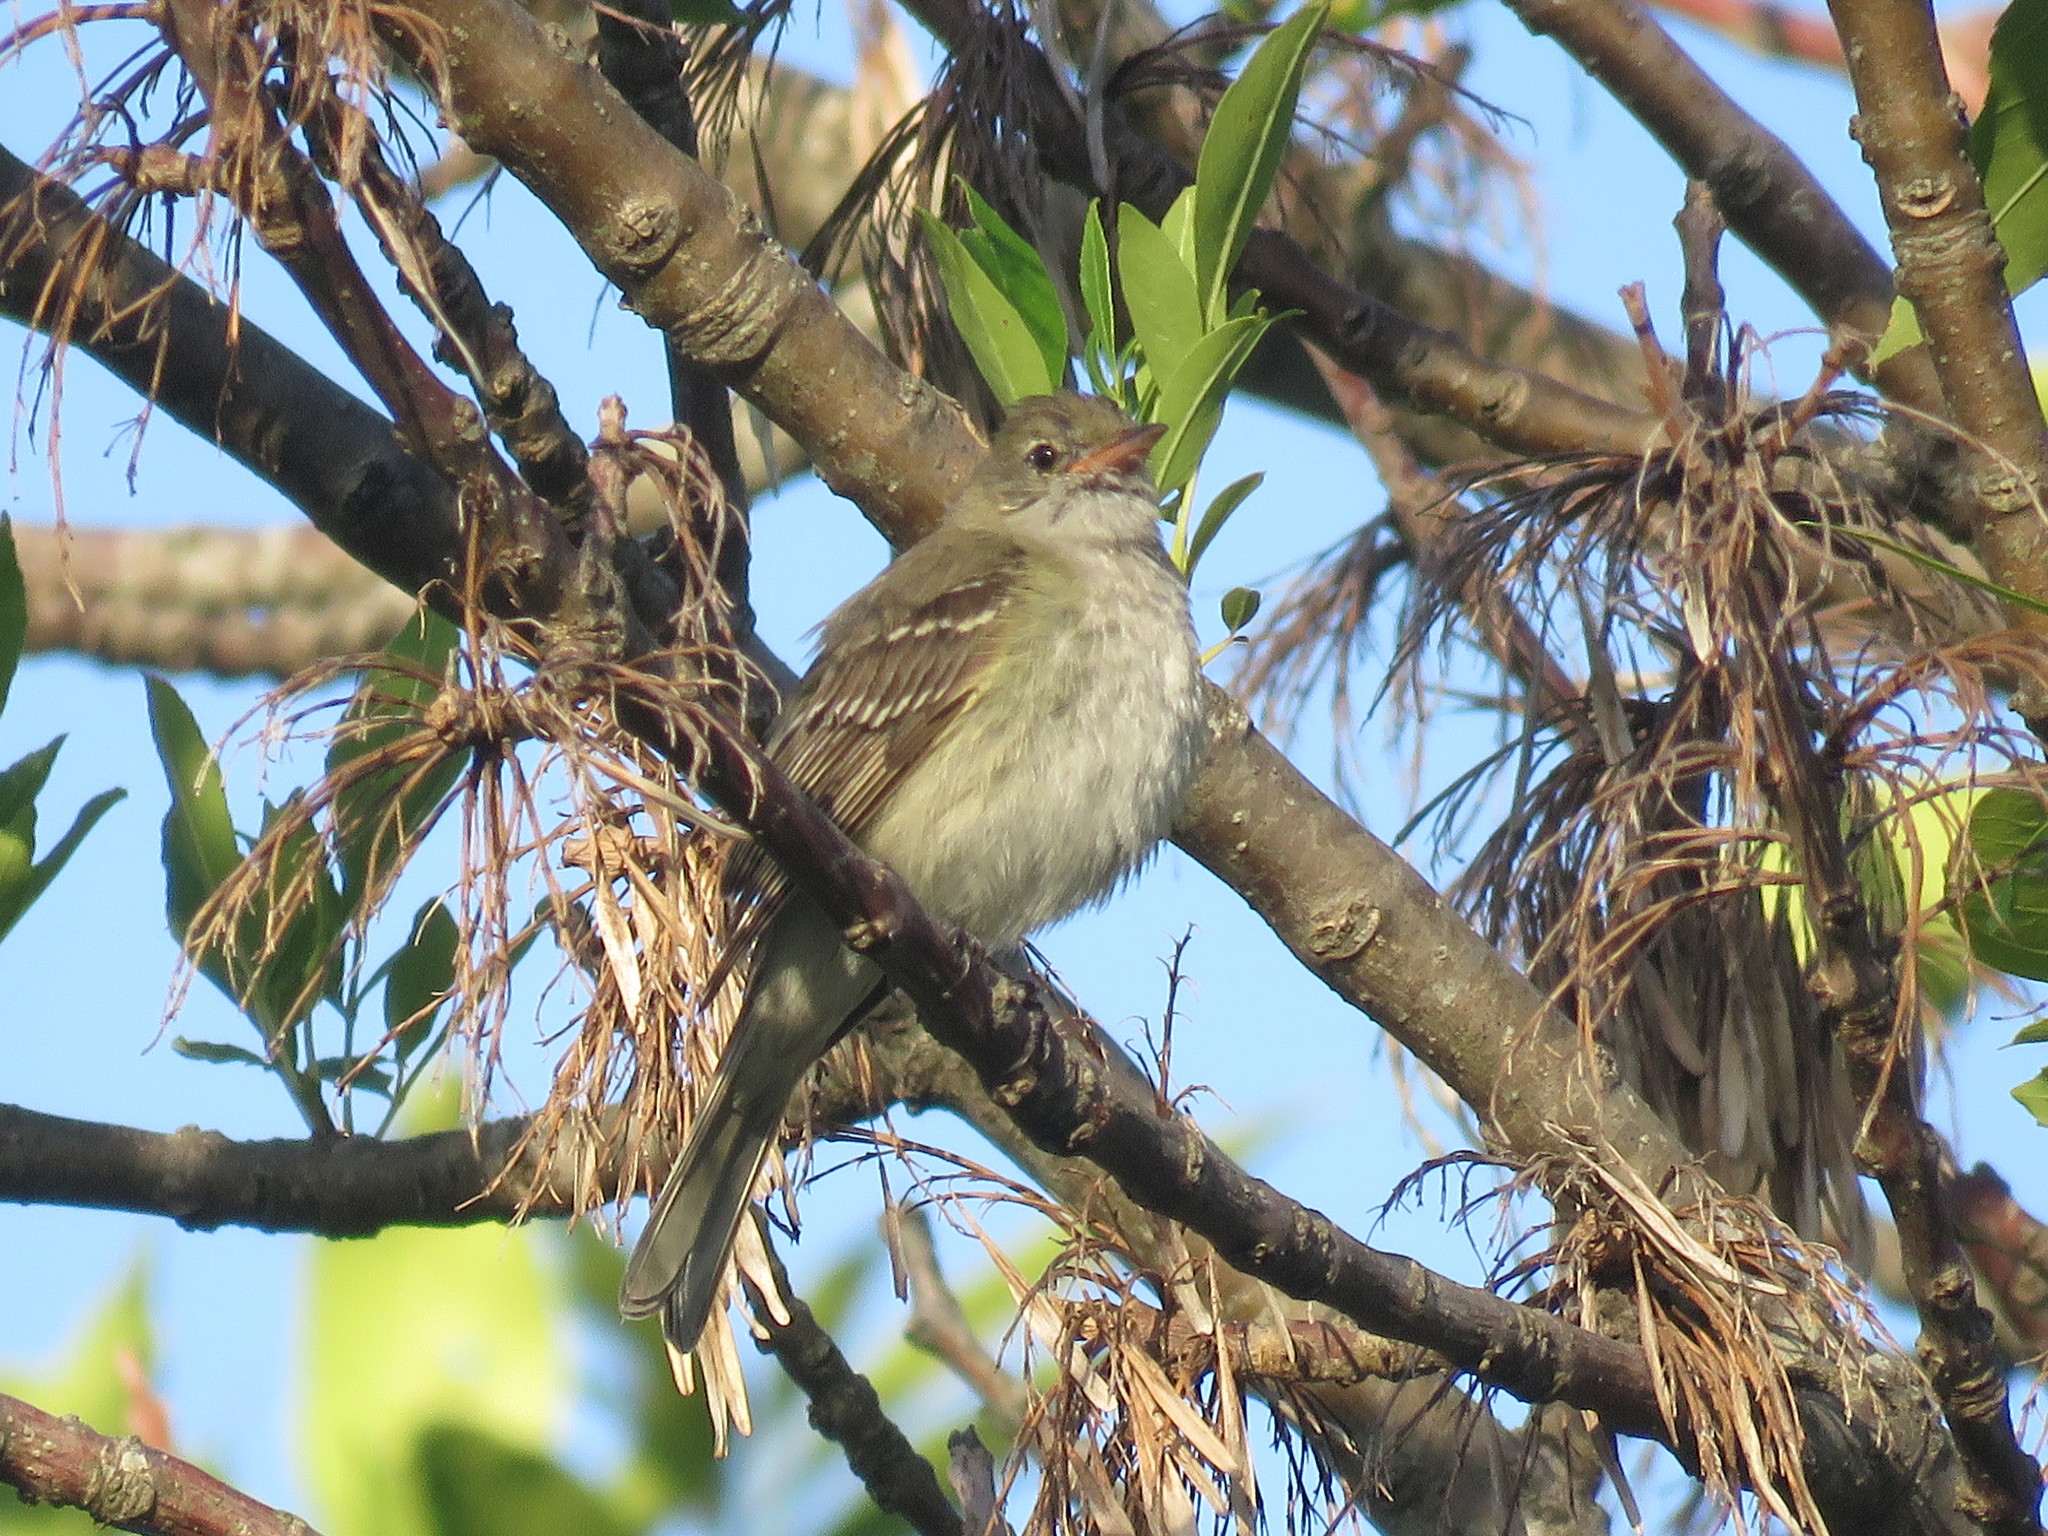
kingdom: Animalia
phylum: Chordata
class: Aves
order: Passeriformes
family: Tyrannidae
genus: Elaenia
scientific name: Elaenia parvirostris
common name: Small-billed elaenia
